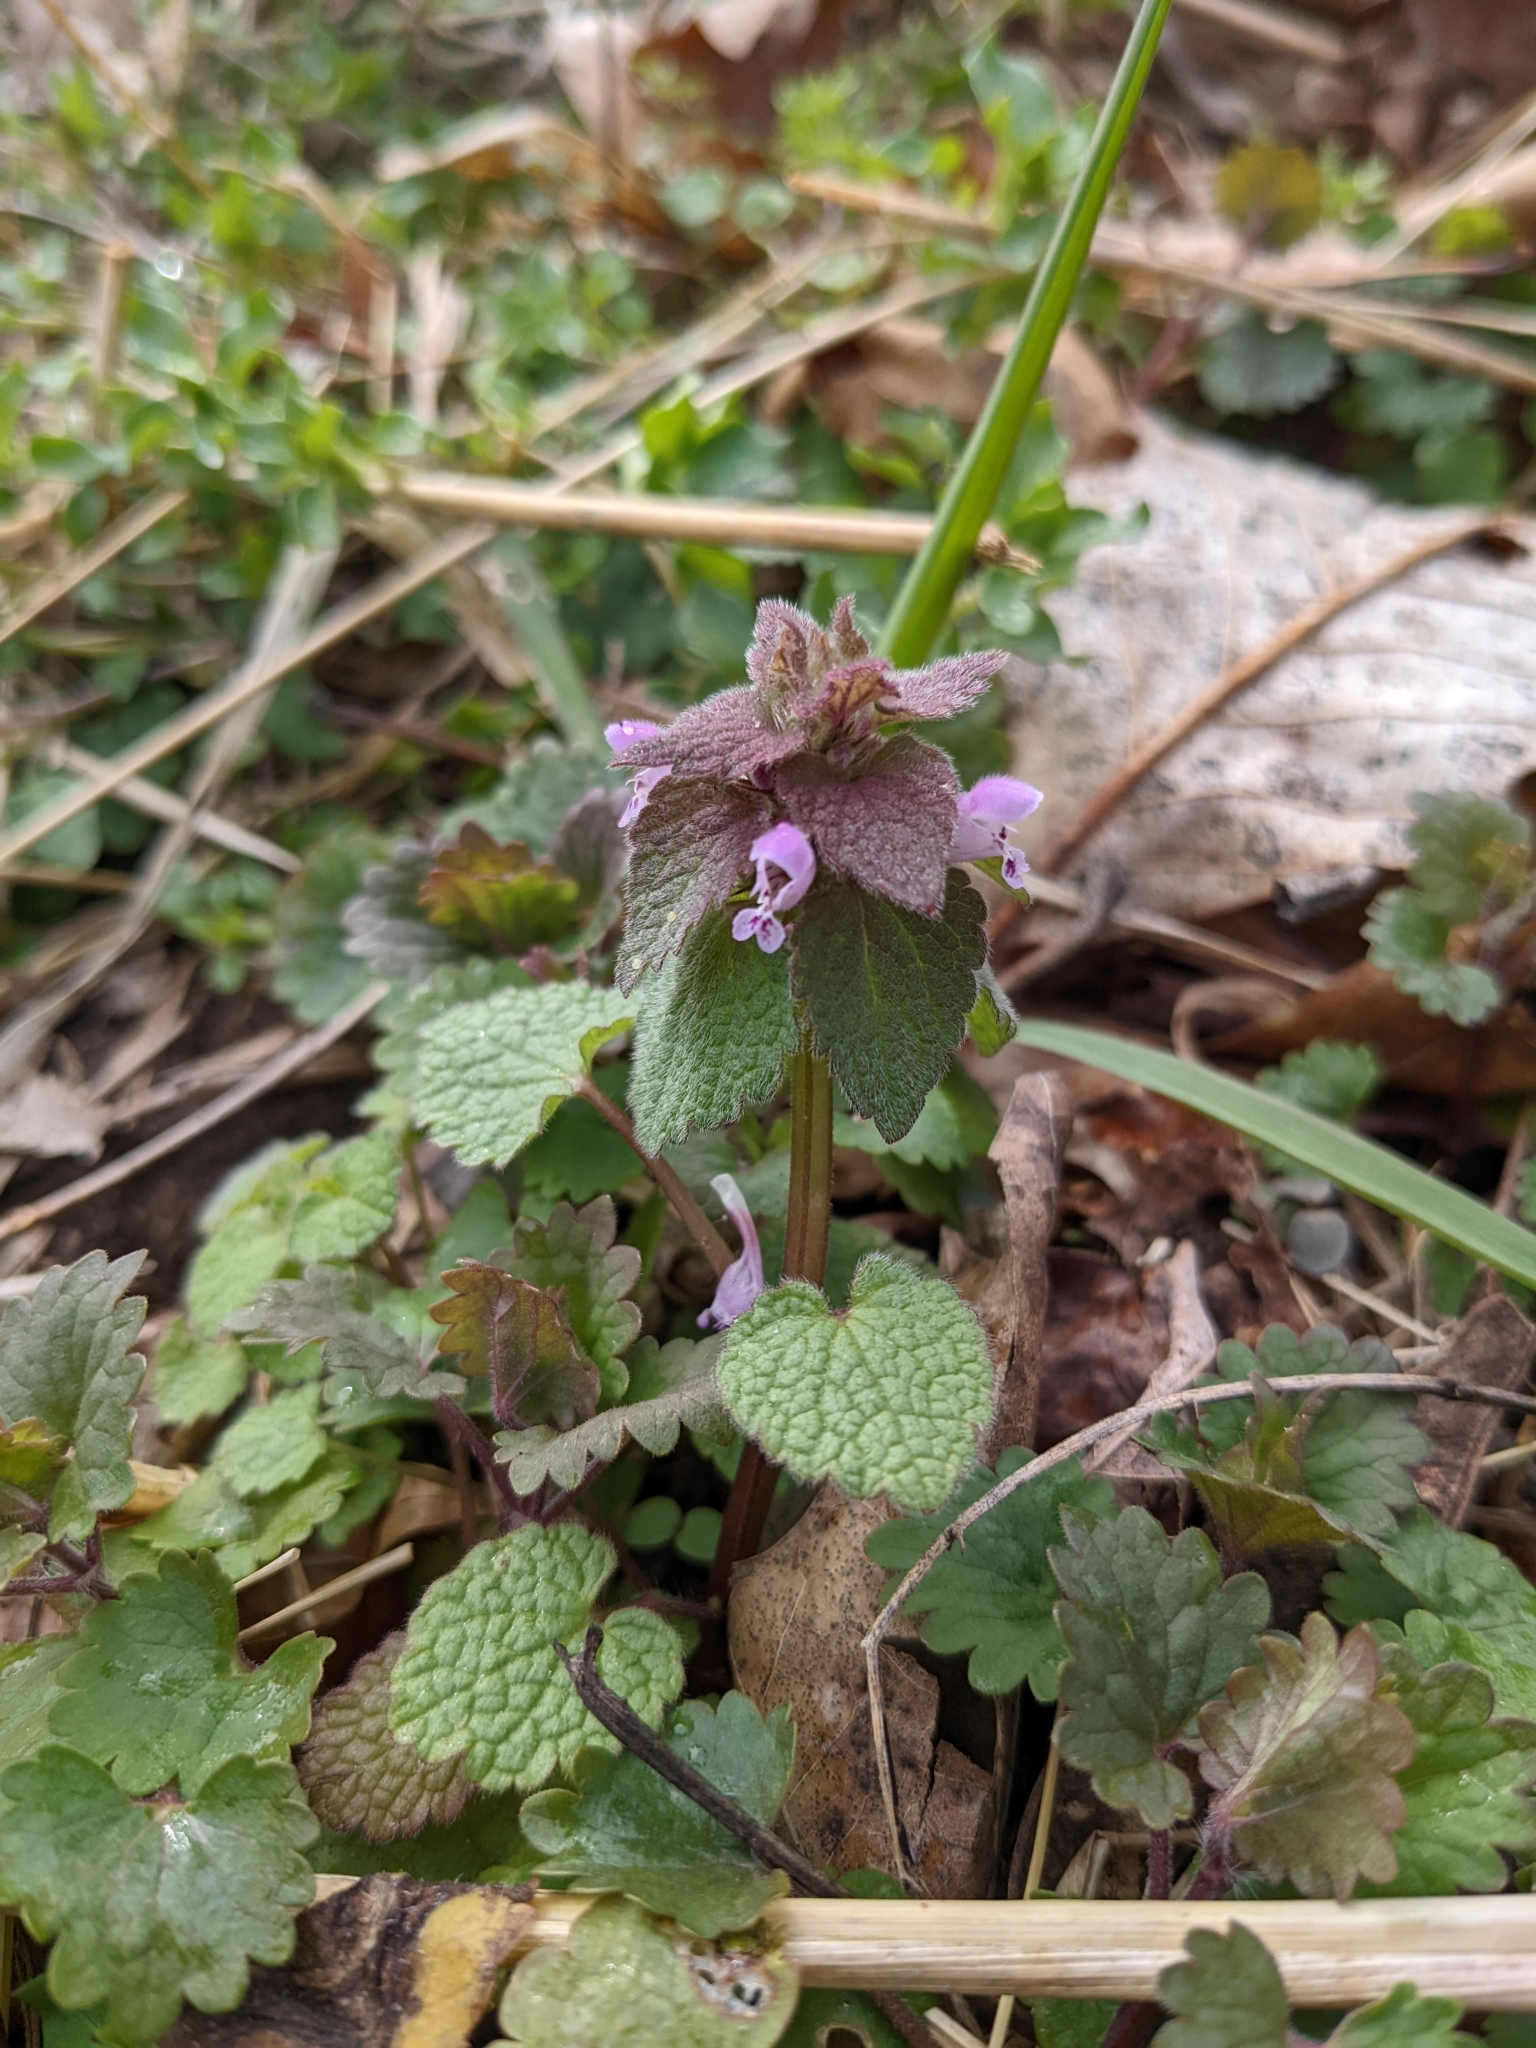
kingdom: Plantae
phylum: Tracheophyta
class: Magnoliopsida
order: Lamiales
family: Lamiaceae
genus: Lamium
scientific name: Lamium purpureum
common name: Red dead-nettle
